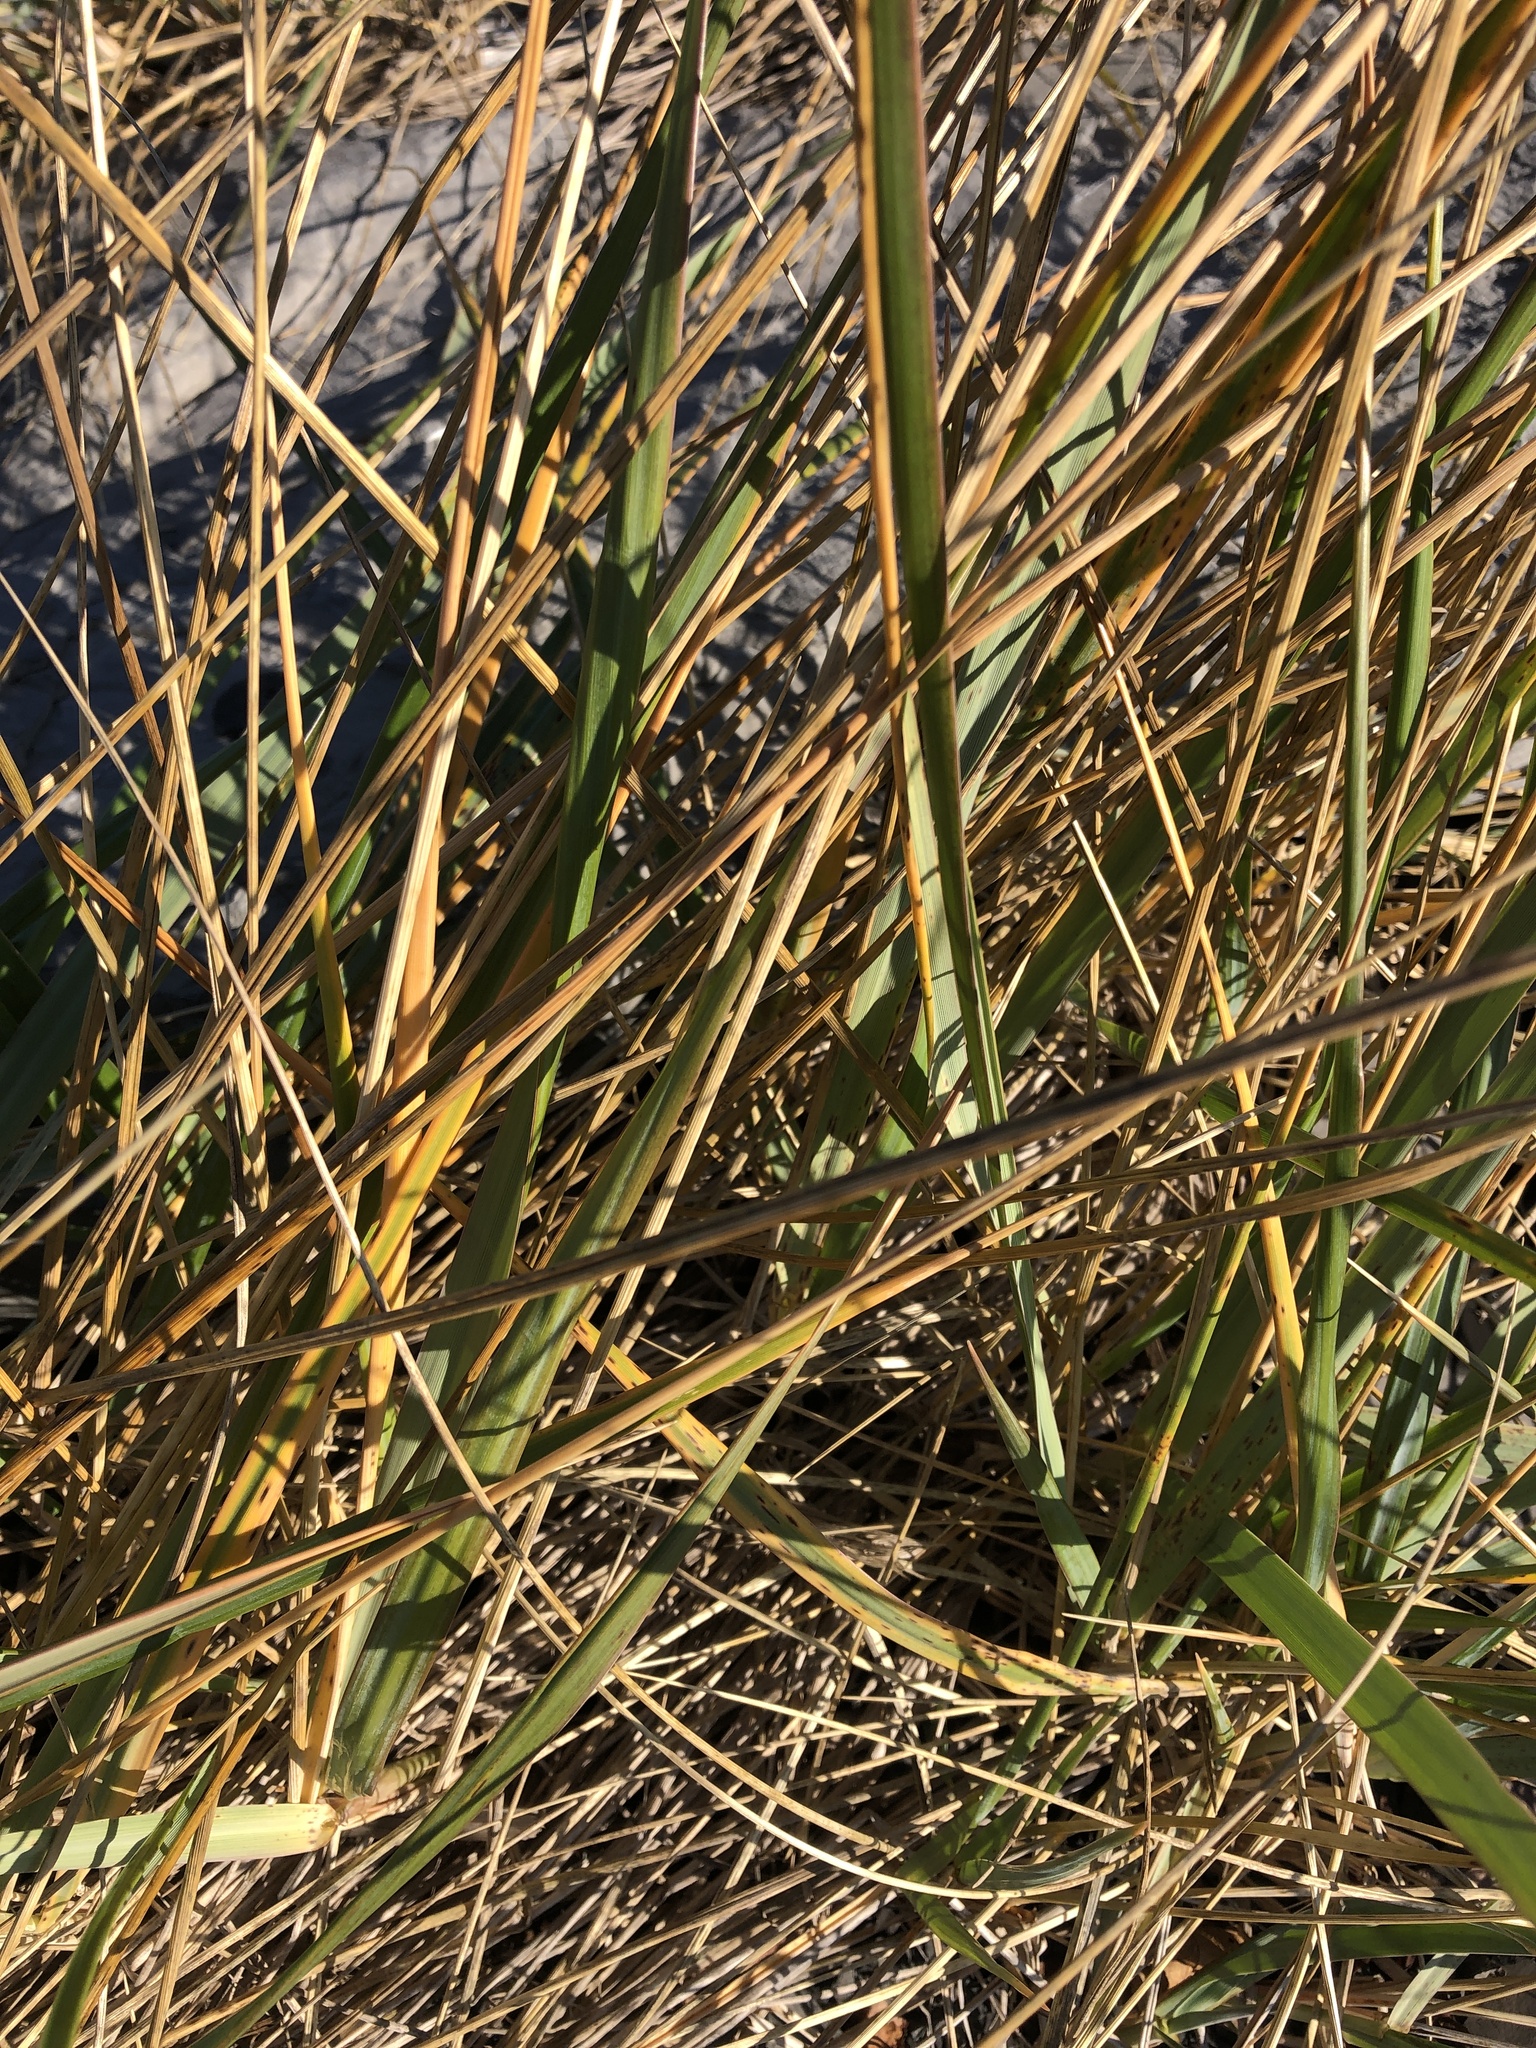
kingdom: Plantae
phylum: Tracheophyta
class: Liliopsida
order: Poales
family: Poaceae
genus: Leymus
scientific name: Leymus mollis
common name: American dune grass
